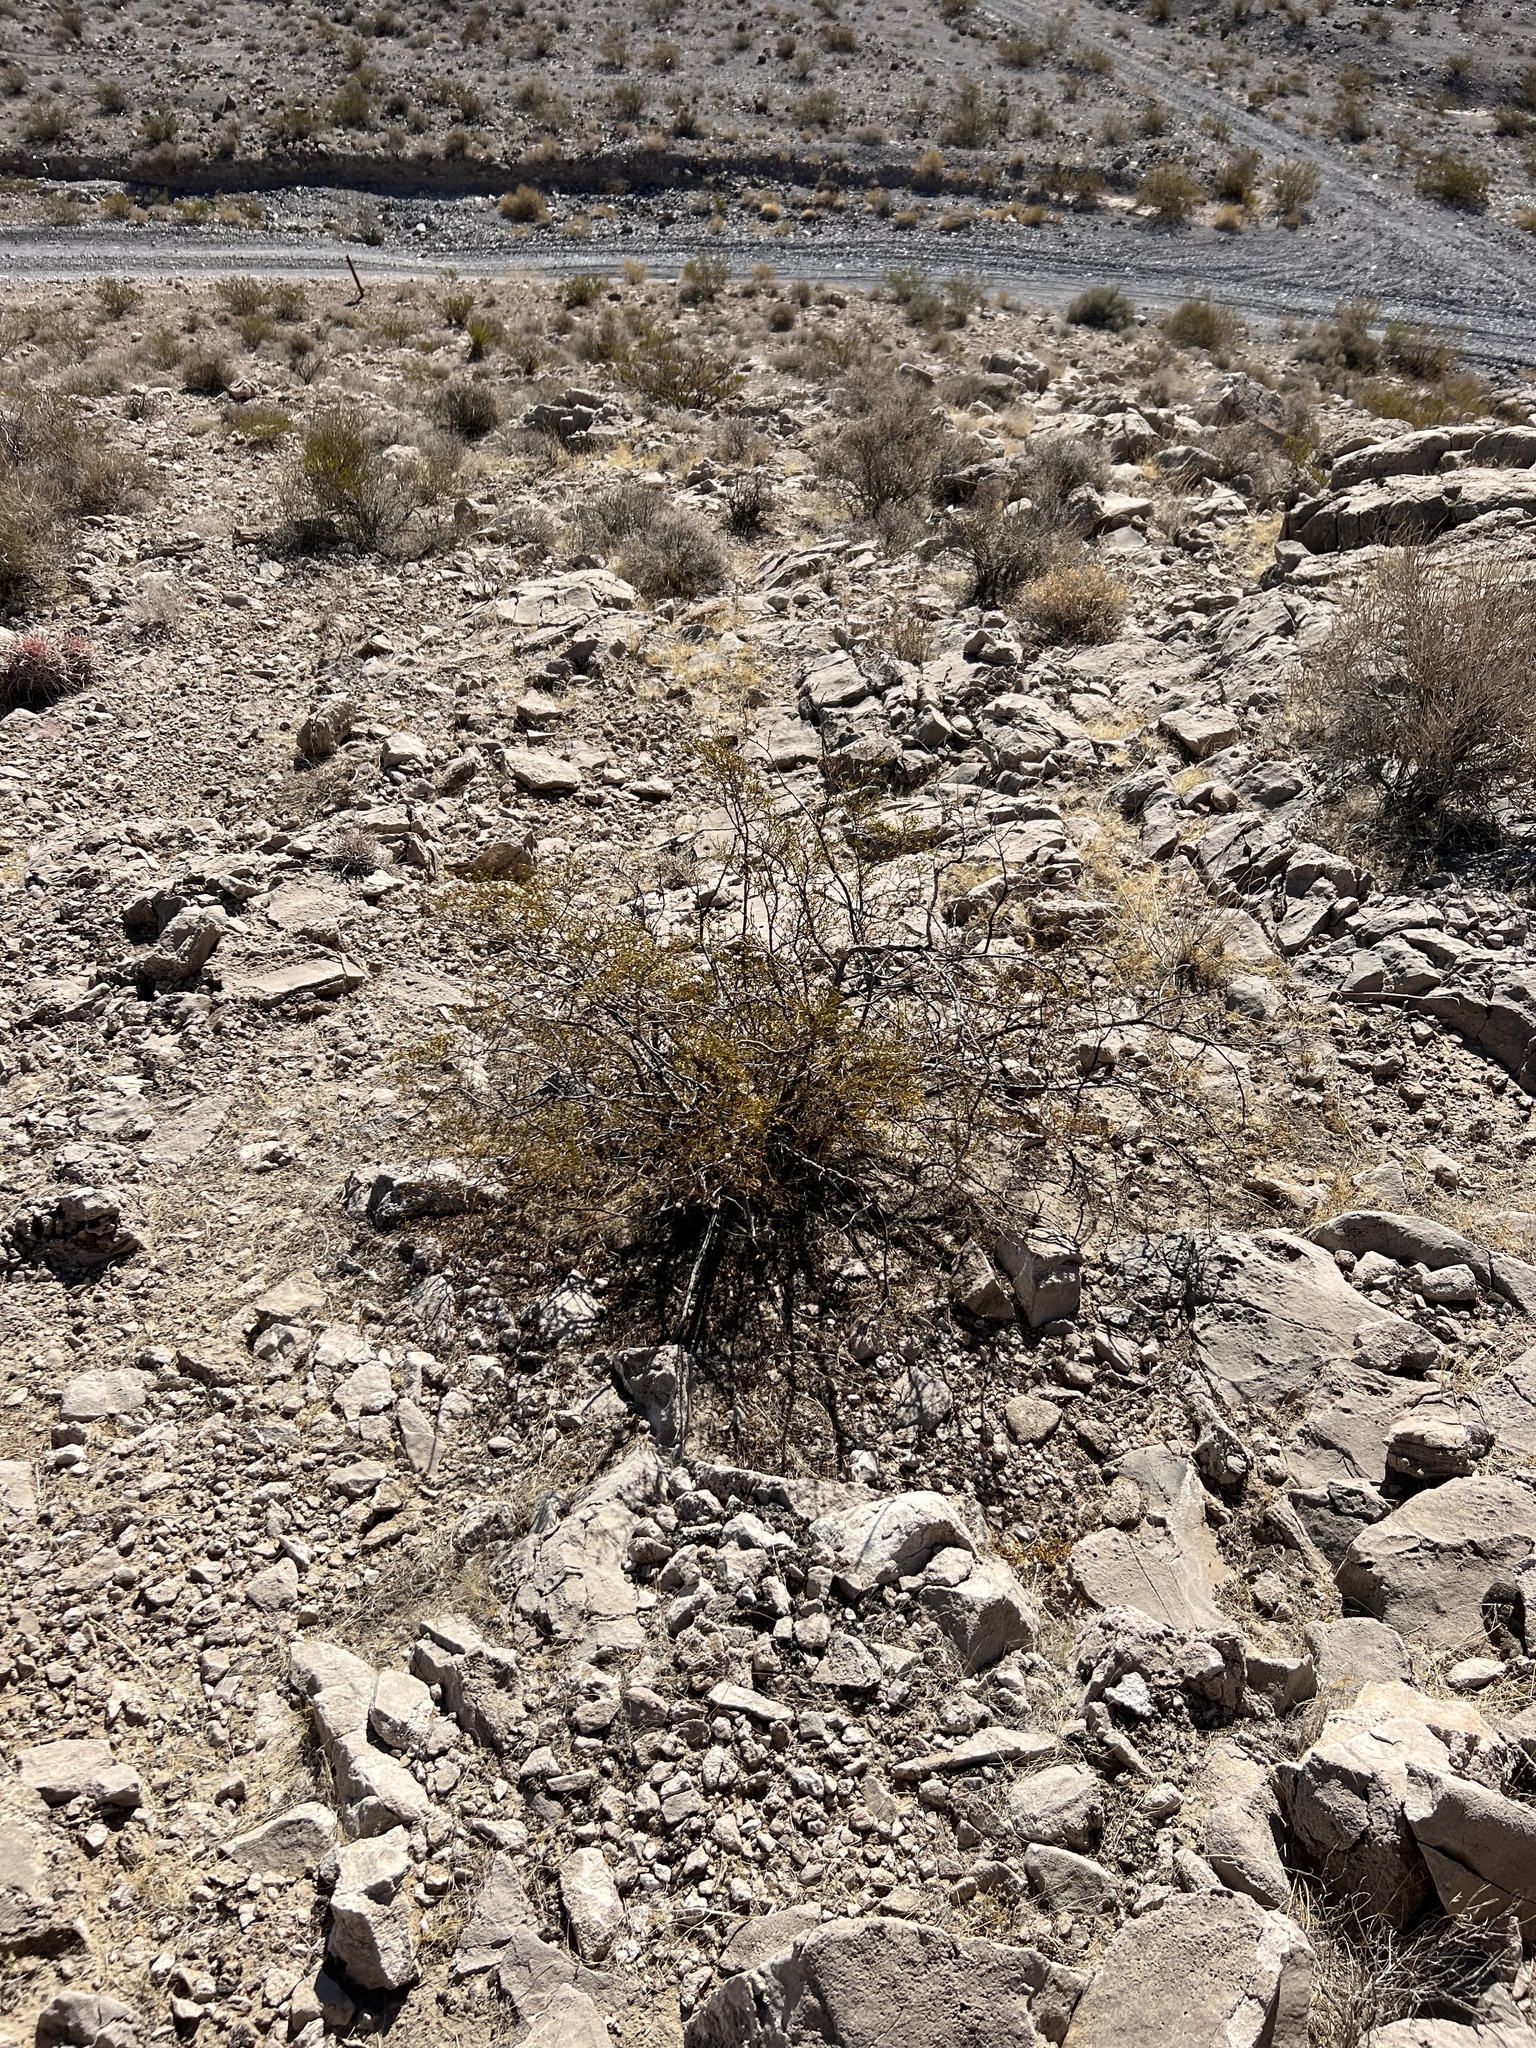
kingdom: Plantae
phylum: Tracheophyta
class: Magnoliopsida
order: Zygophyllales
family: Zygophyllaceae
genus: Larrea
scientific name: Larrea tridentata
